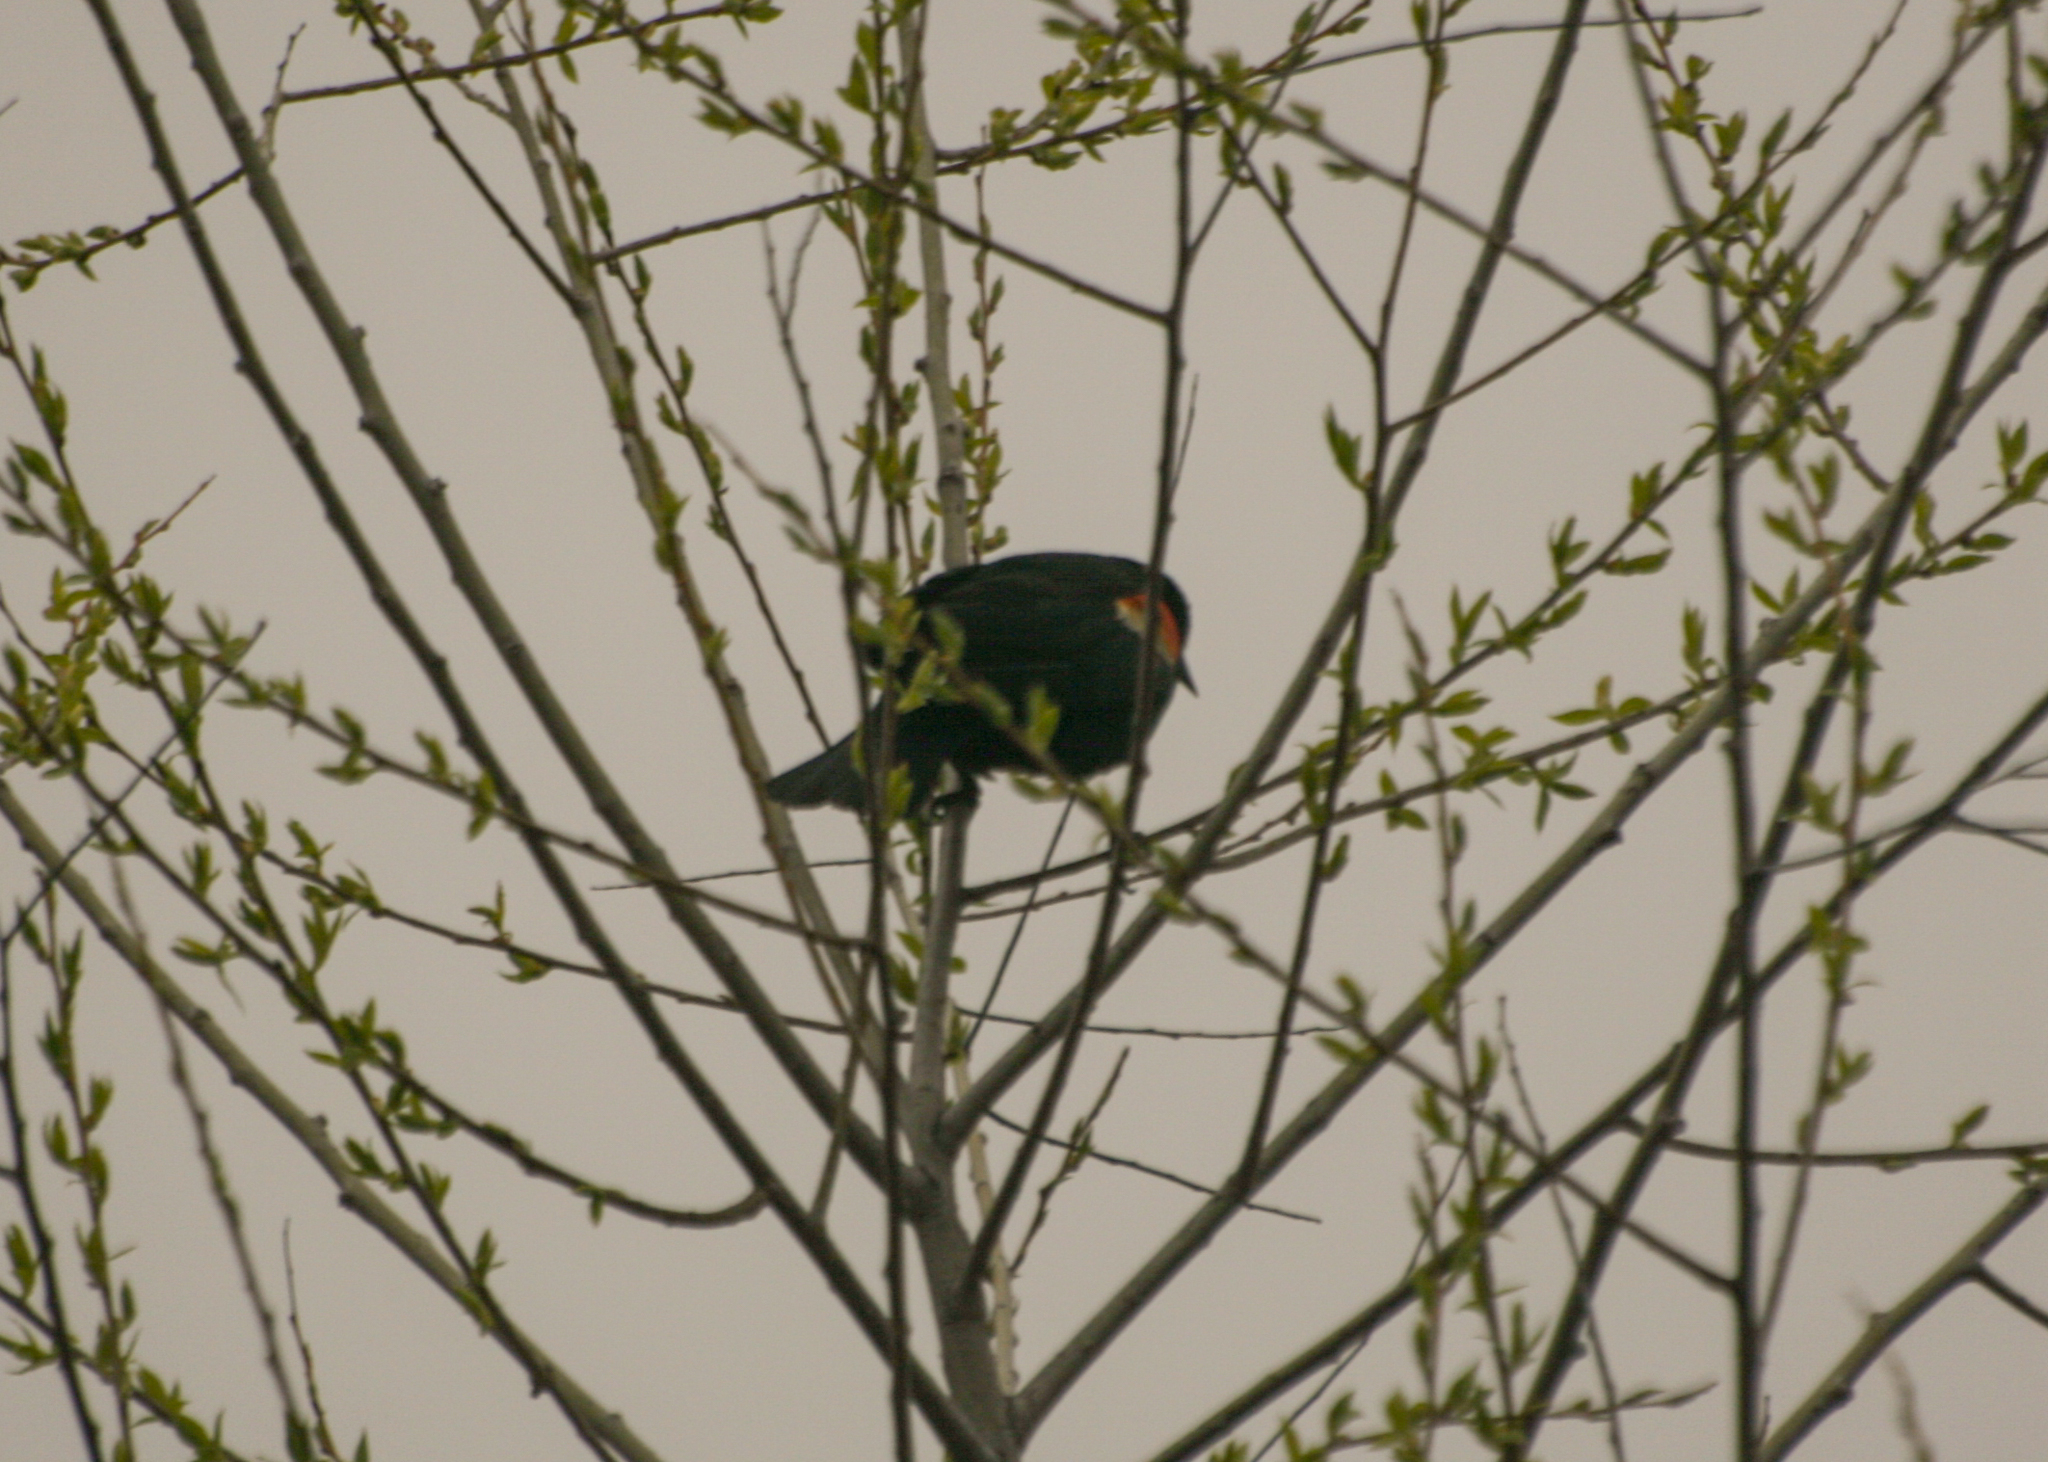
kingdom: Animalia
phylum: Chordata
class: Aves
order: Passeriformes
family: Icteridae
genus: Agelaius
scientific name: Agelaius phoeniceus
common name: Red-winged blackbird
